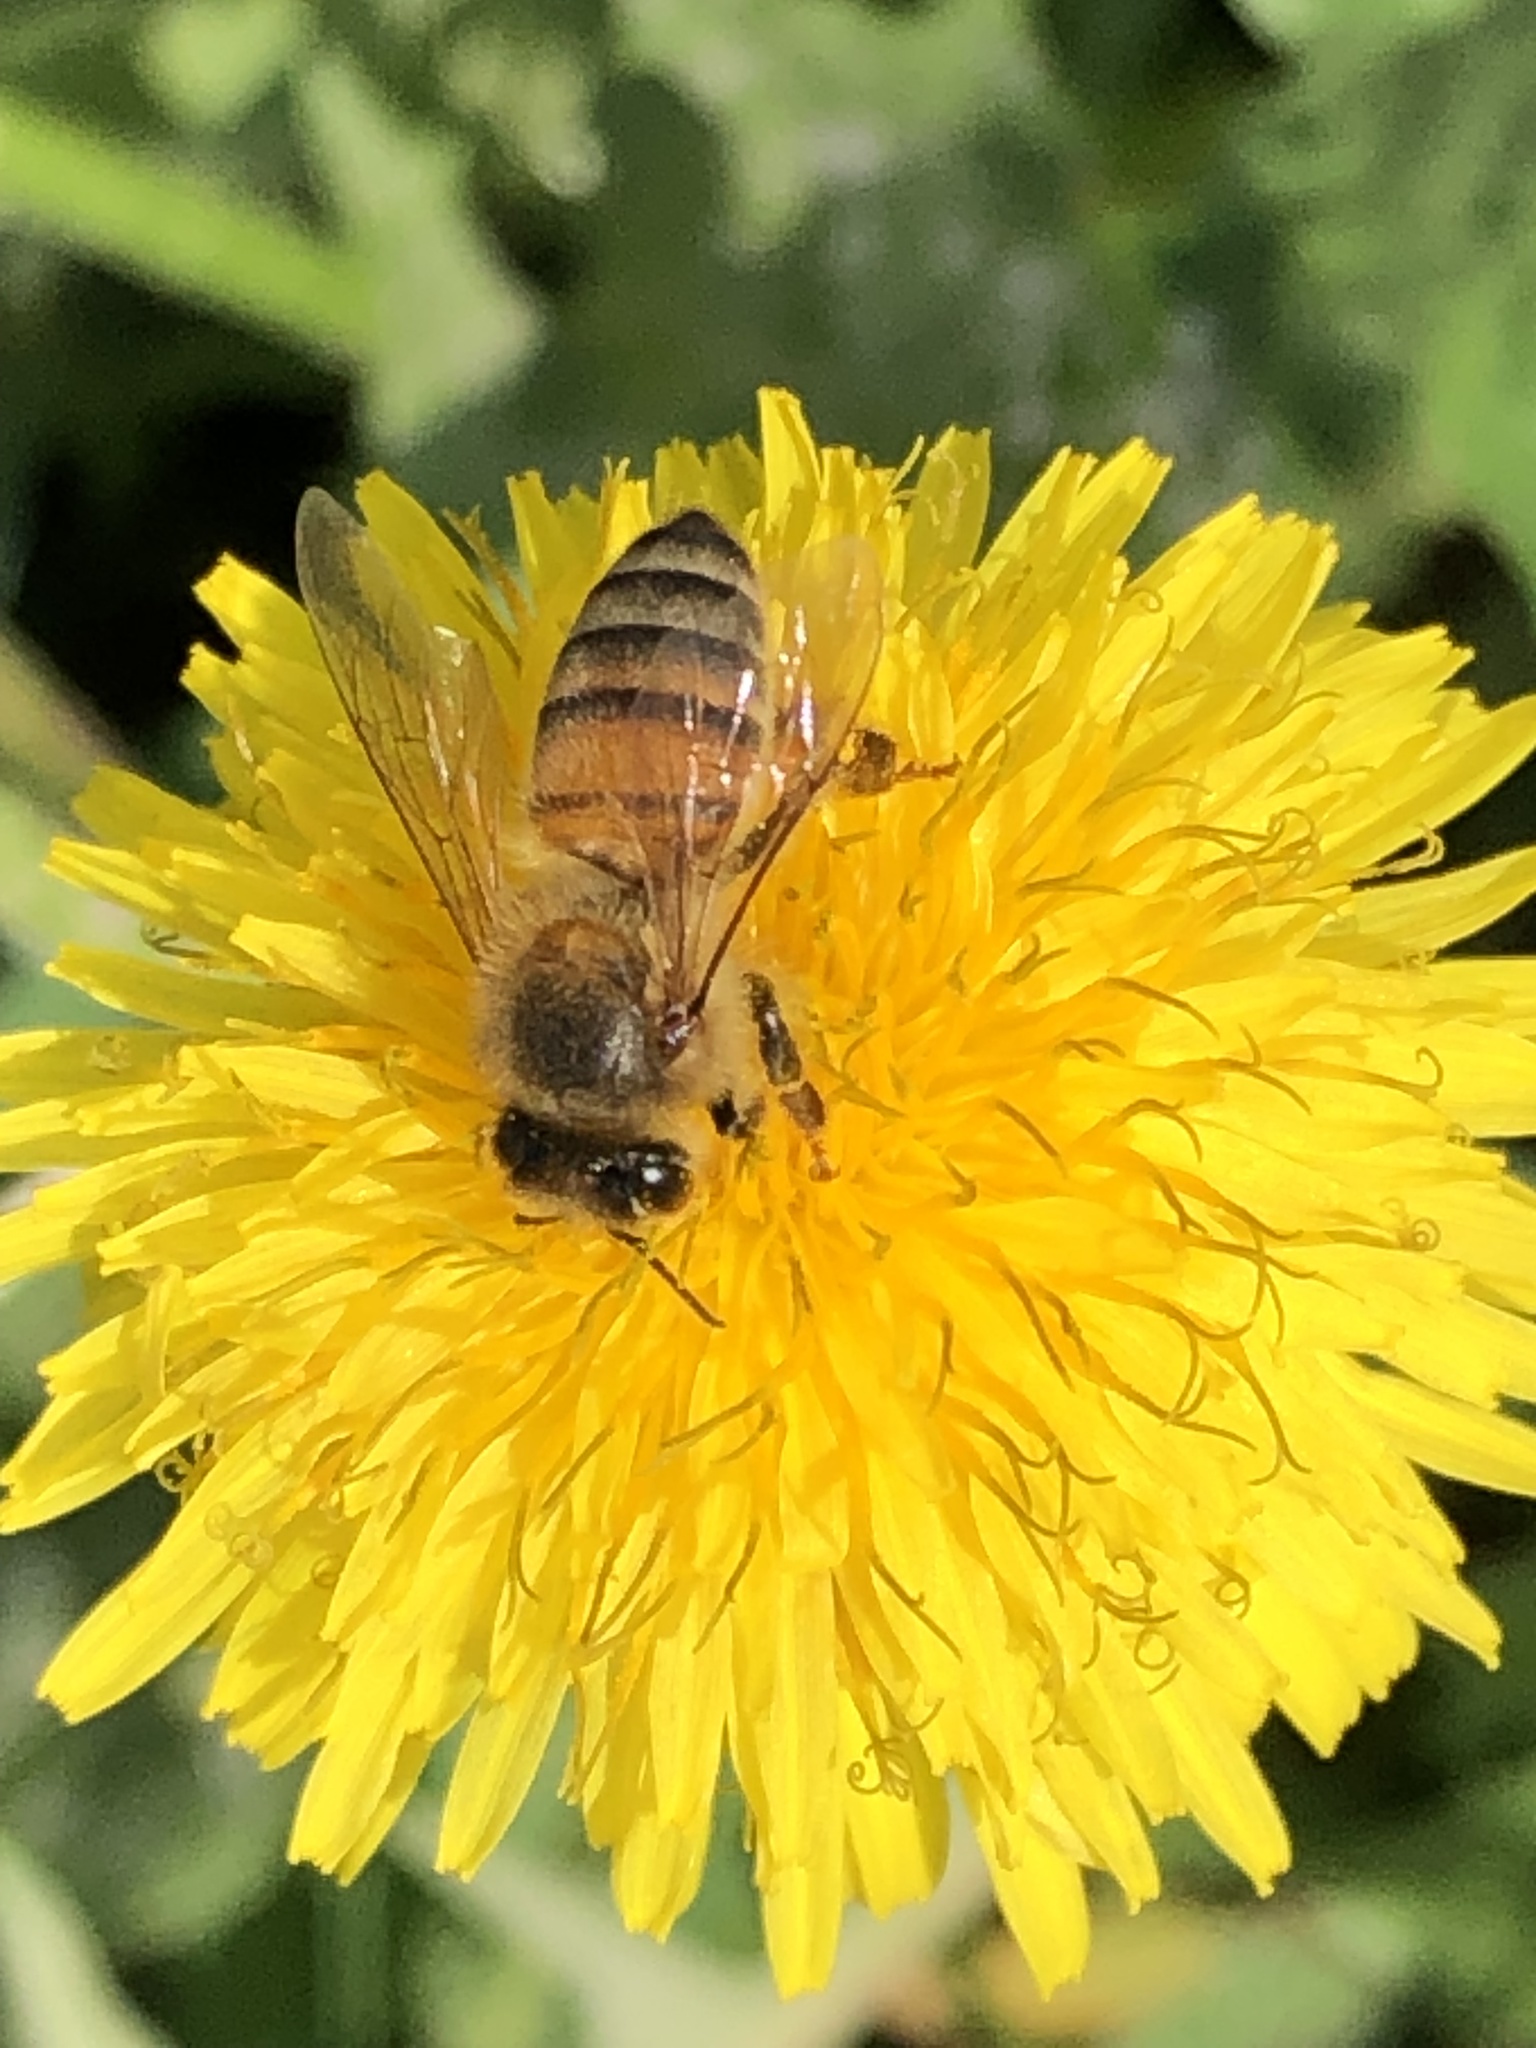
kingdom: Animalia
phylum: Arthropoda
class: Insecta
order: Hymenoptera
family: Apidae
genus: Apis
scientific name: Apis mellifera
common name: Honey bee
